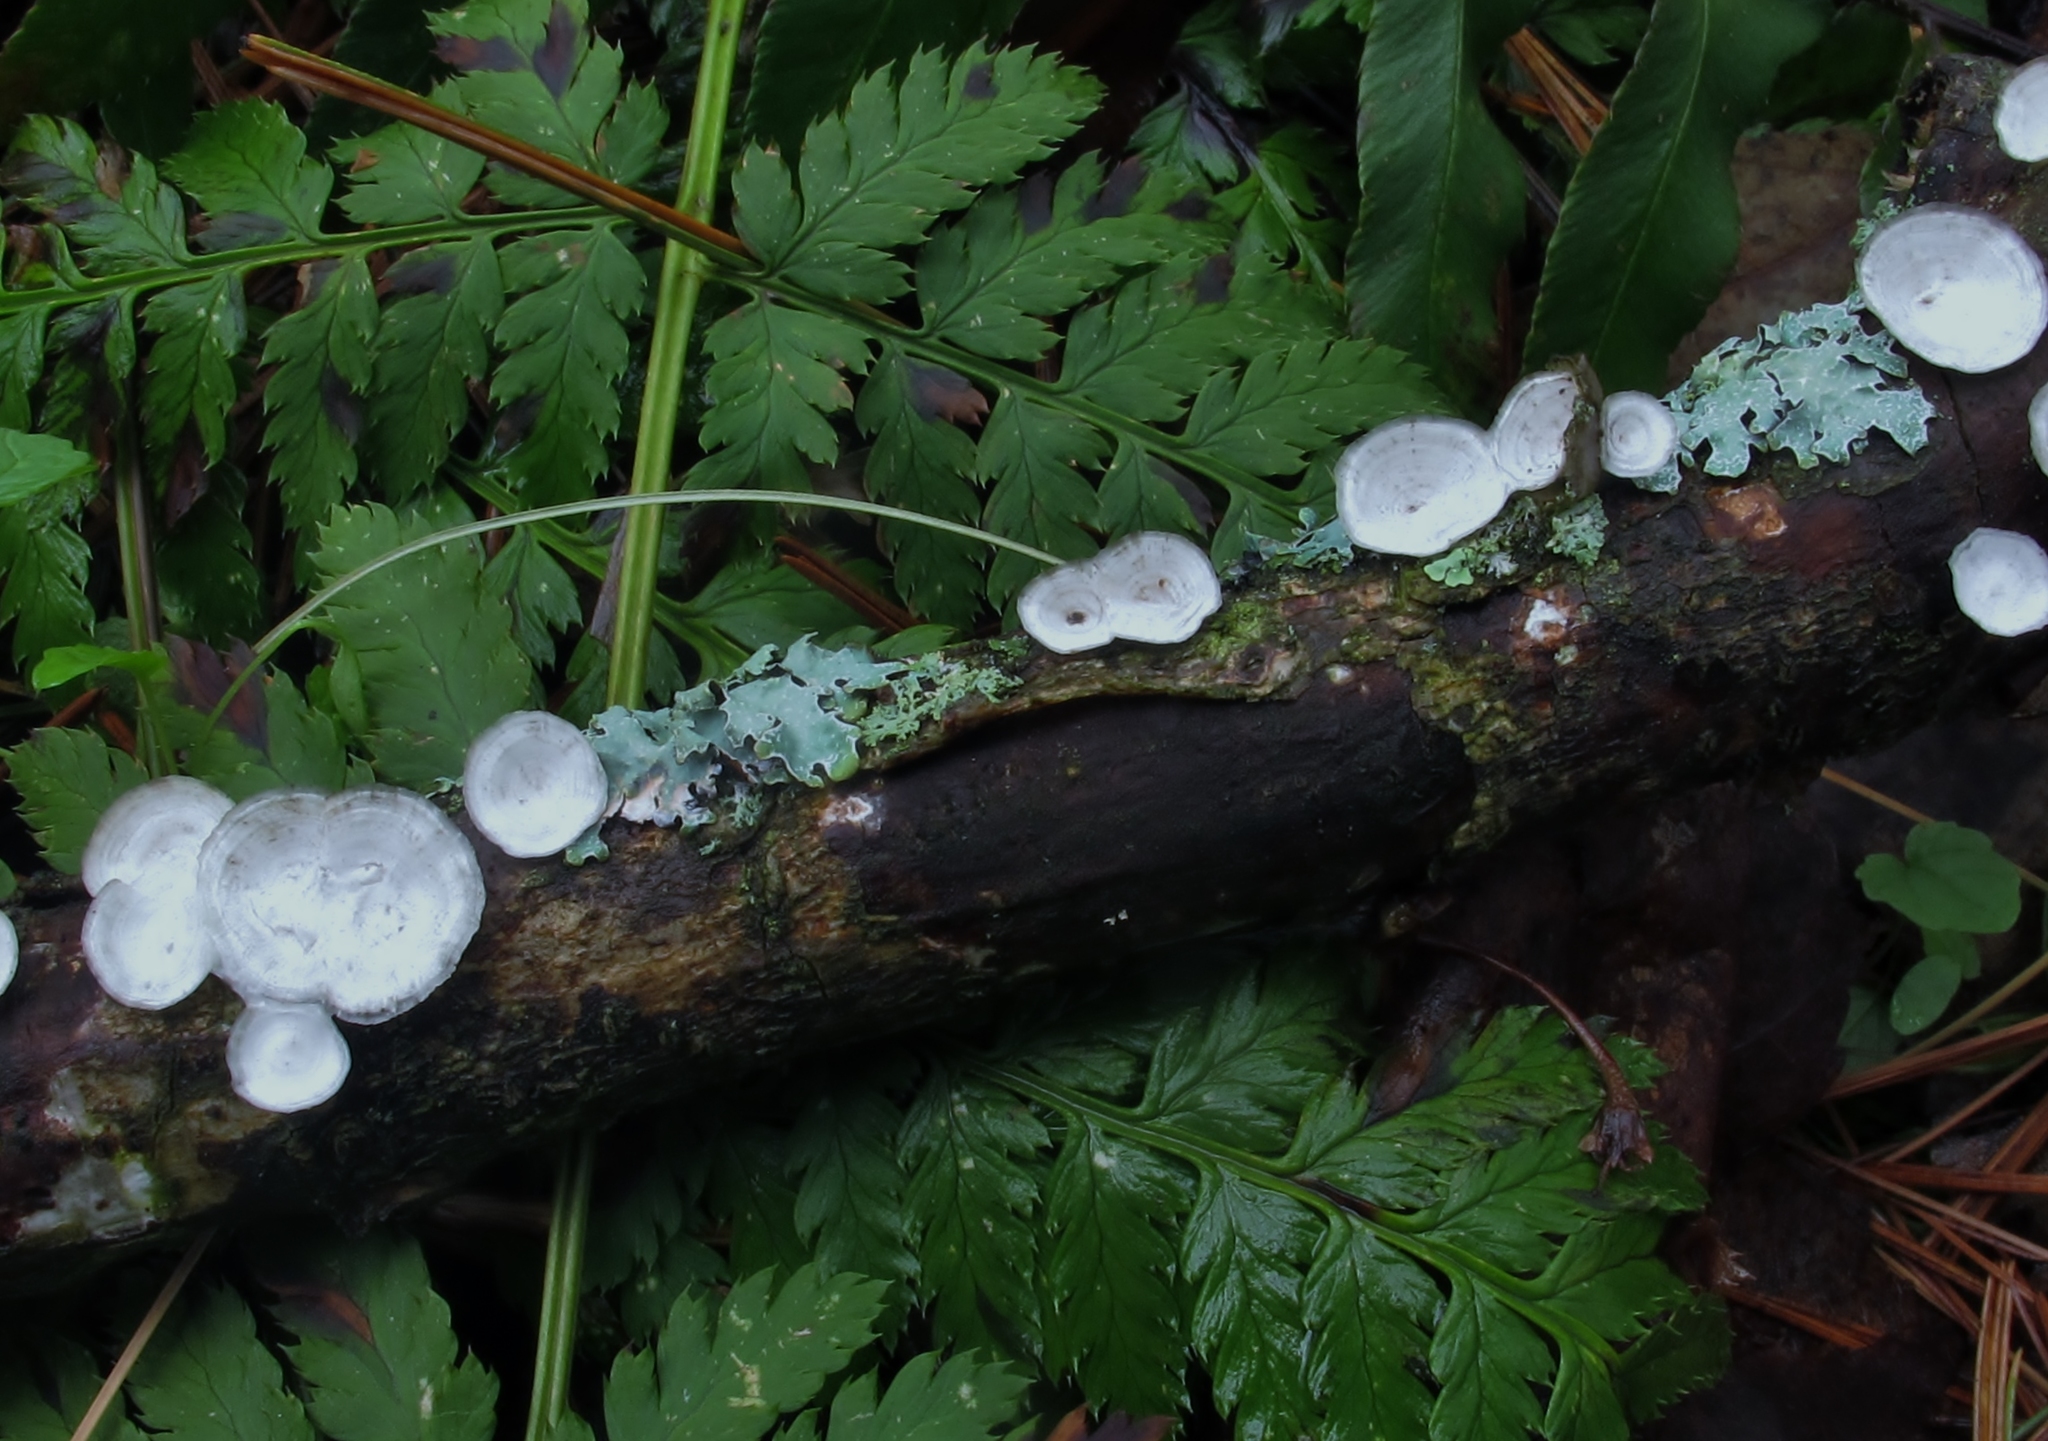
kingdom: Fungi
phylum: Basidiomycota
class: Agaricomycetes
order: Polyporales
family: Polyporaceae
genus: Poronidulus
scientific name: Poronidulus conchifer
